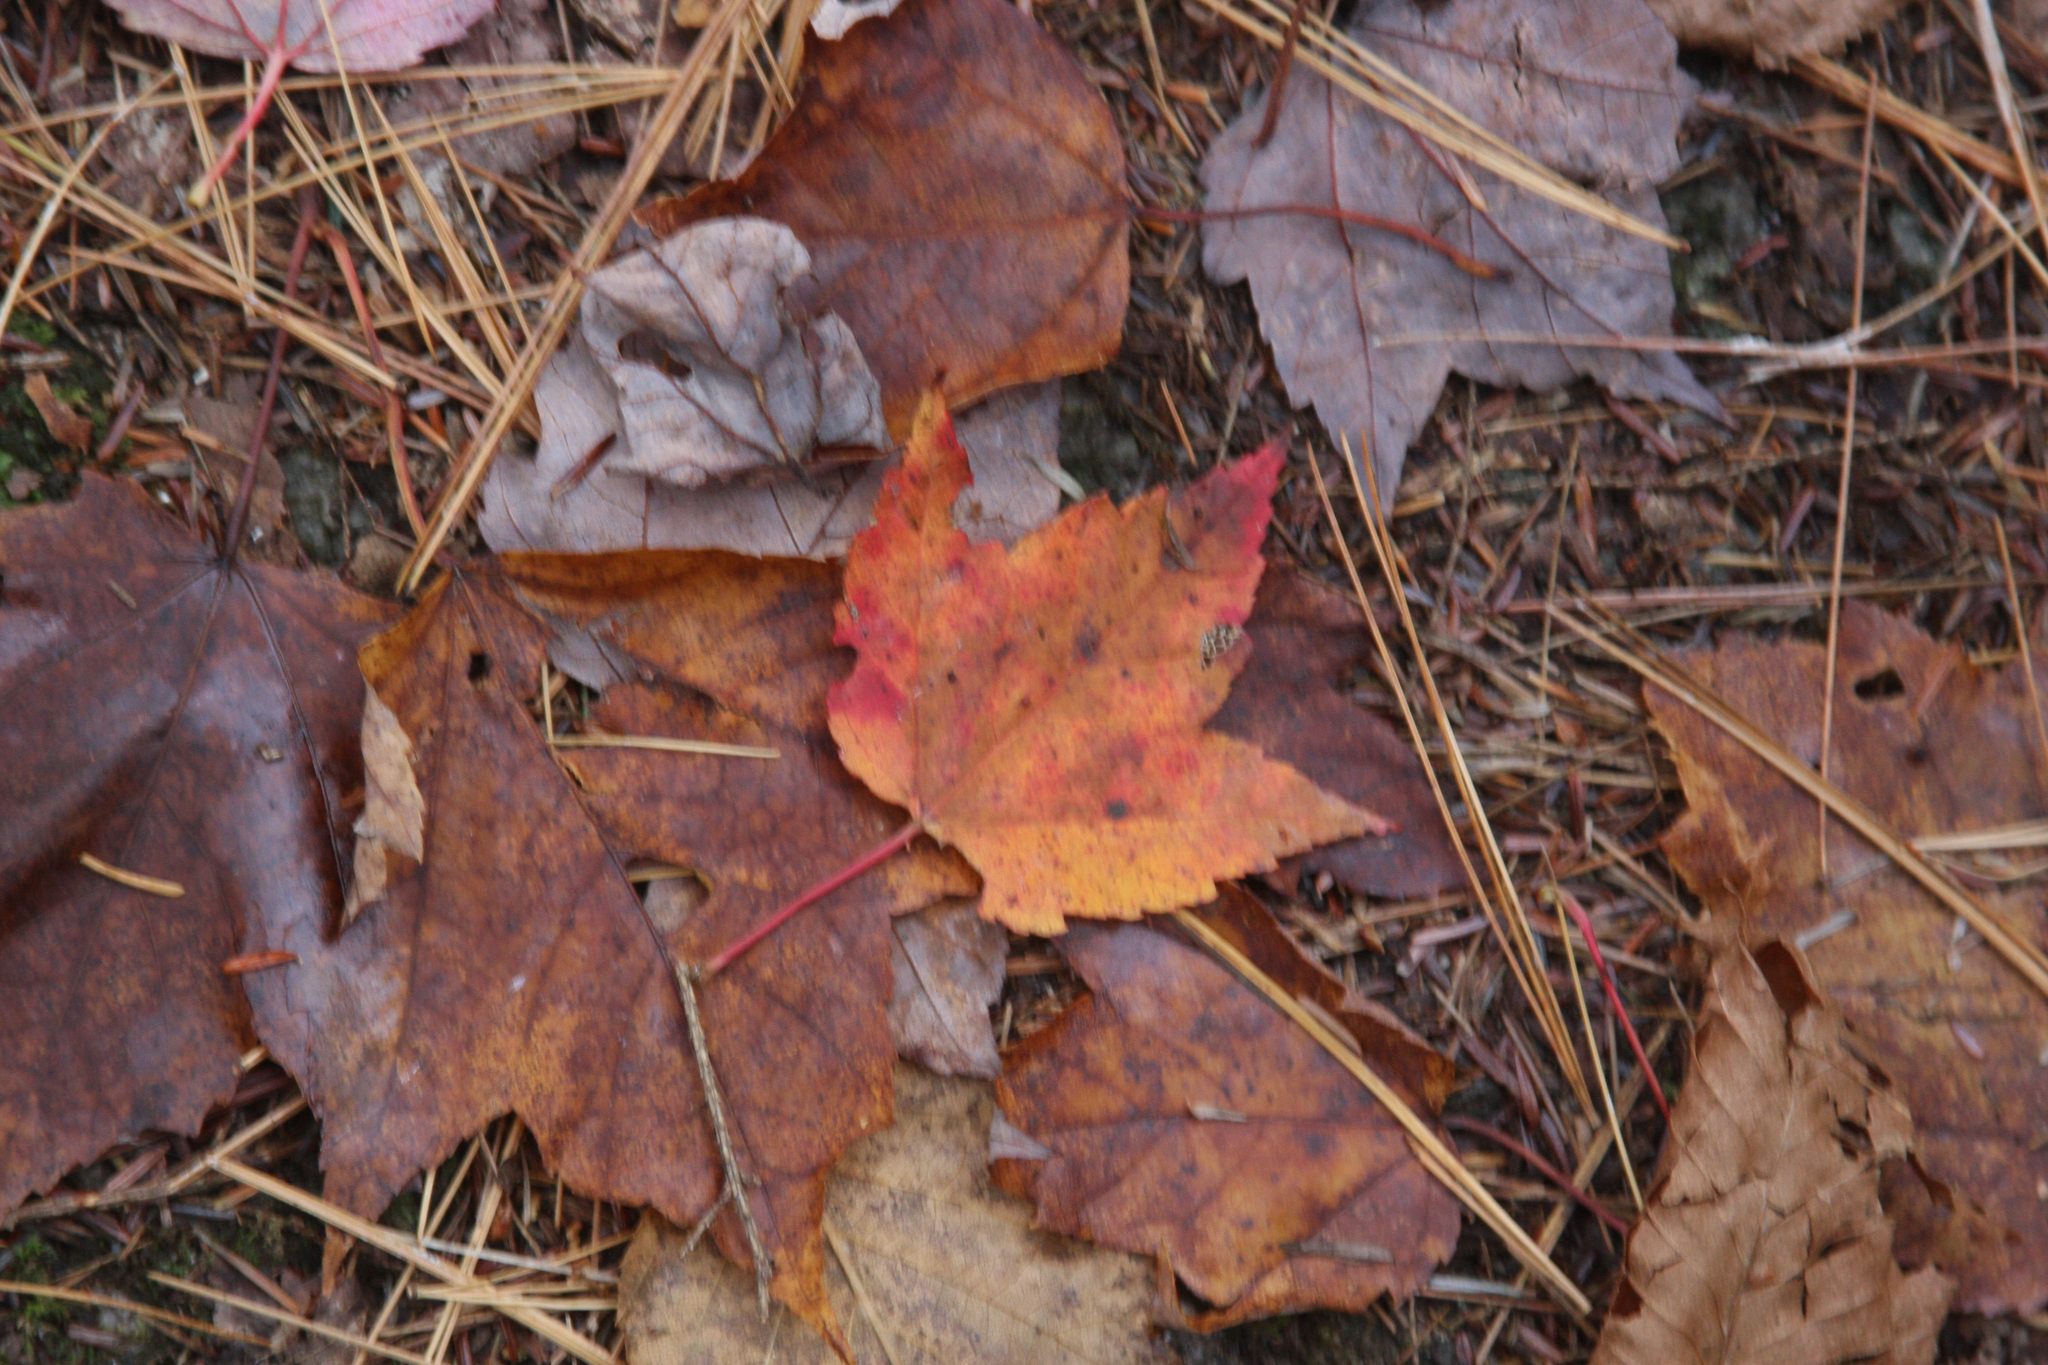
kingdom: Plantae
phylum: Tracheophyta
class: Magnoliopsida
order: Sapindales
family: Sapindaceae
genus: Acer
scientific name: Acer rubrum
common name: Red maple
